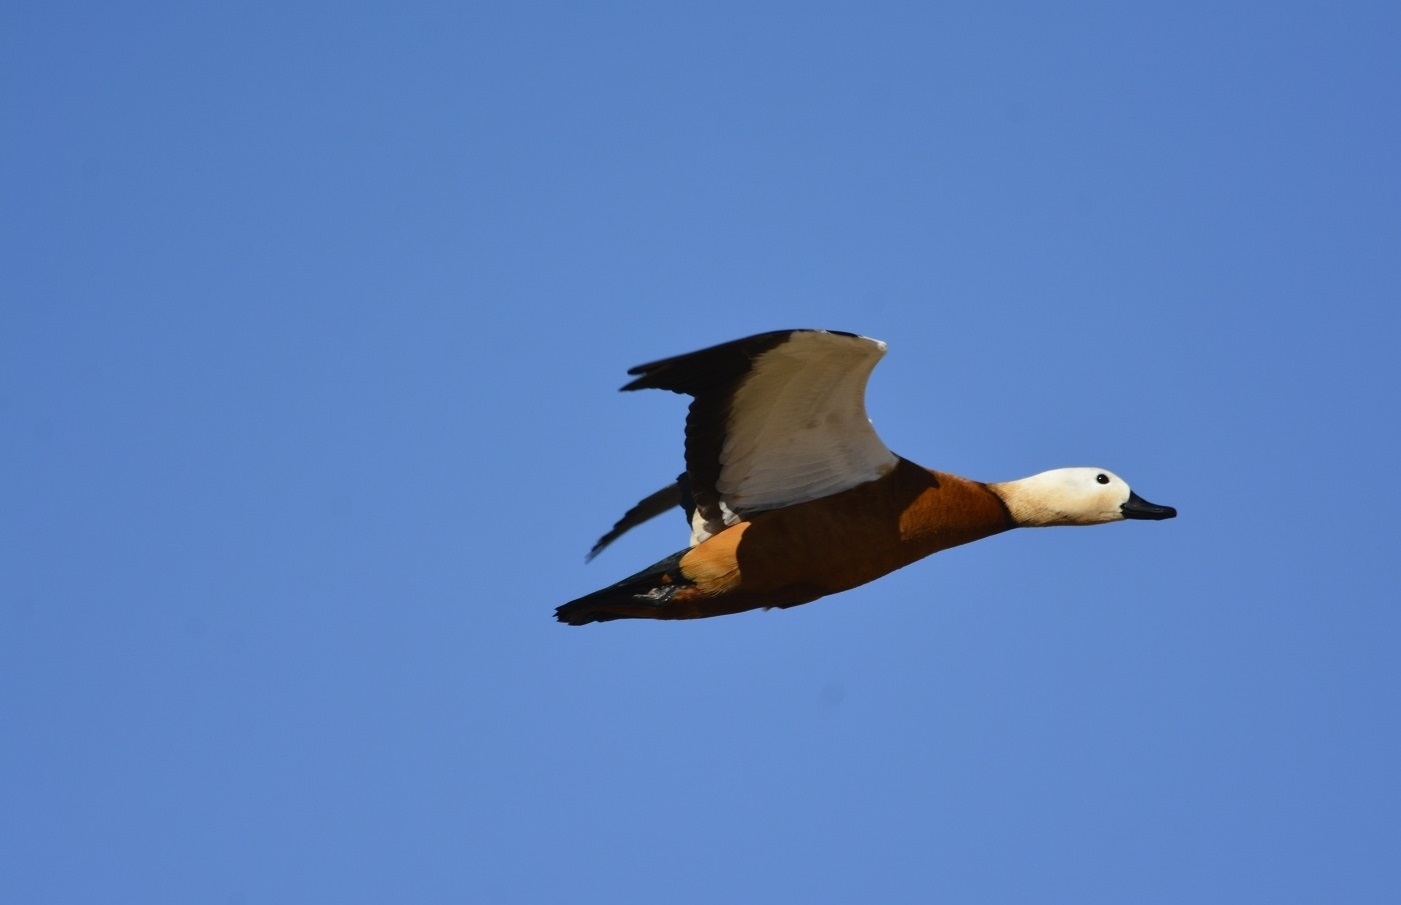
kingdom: Animalia
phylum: Chordata
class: Aves
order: Anseriformes
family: Anatidae
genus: Tadorna
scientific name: Tadorna ferruginea
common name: Ruddy shelduck
